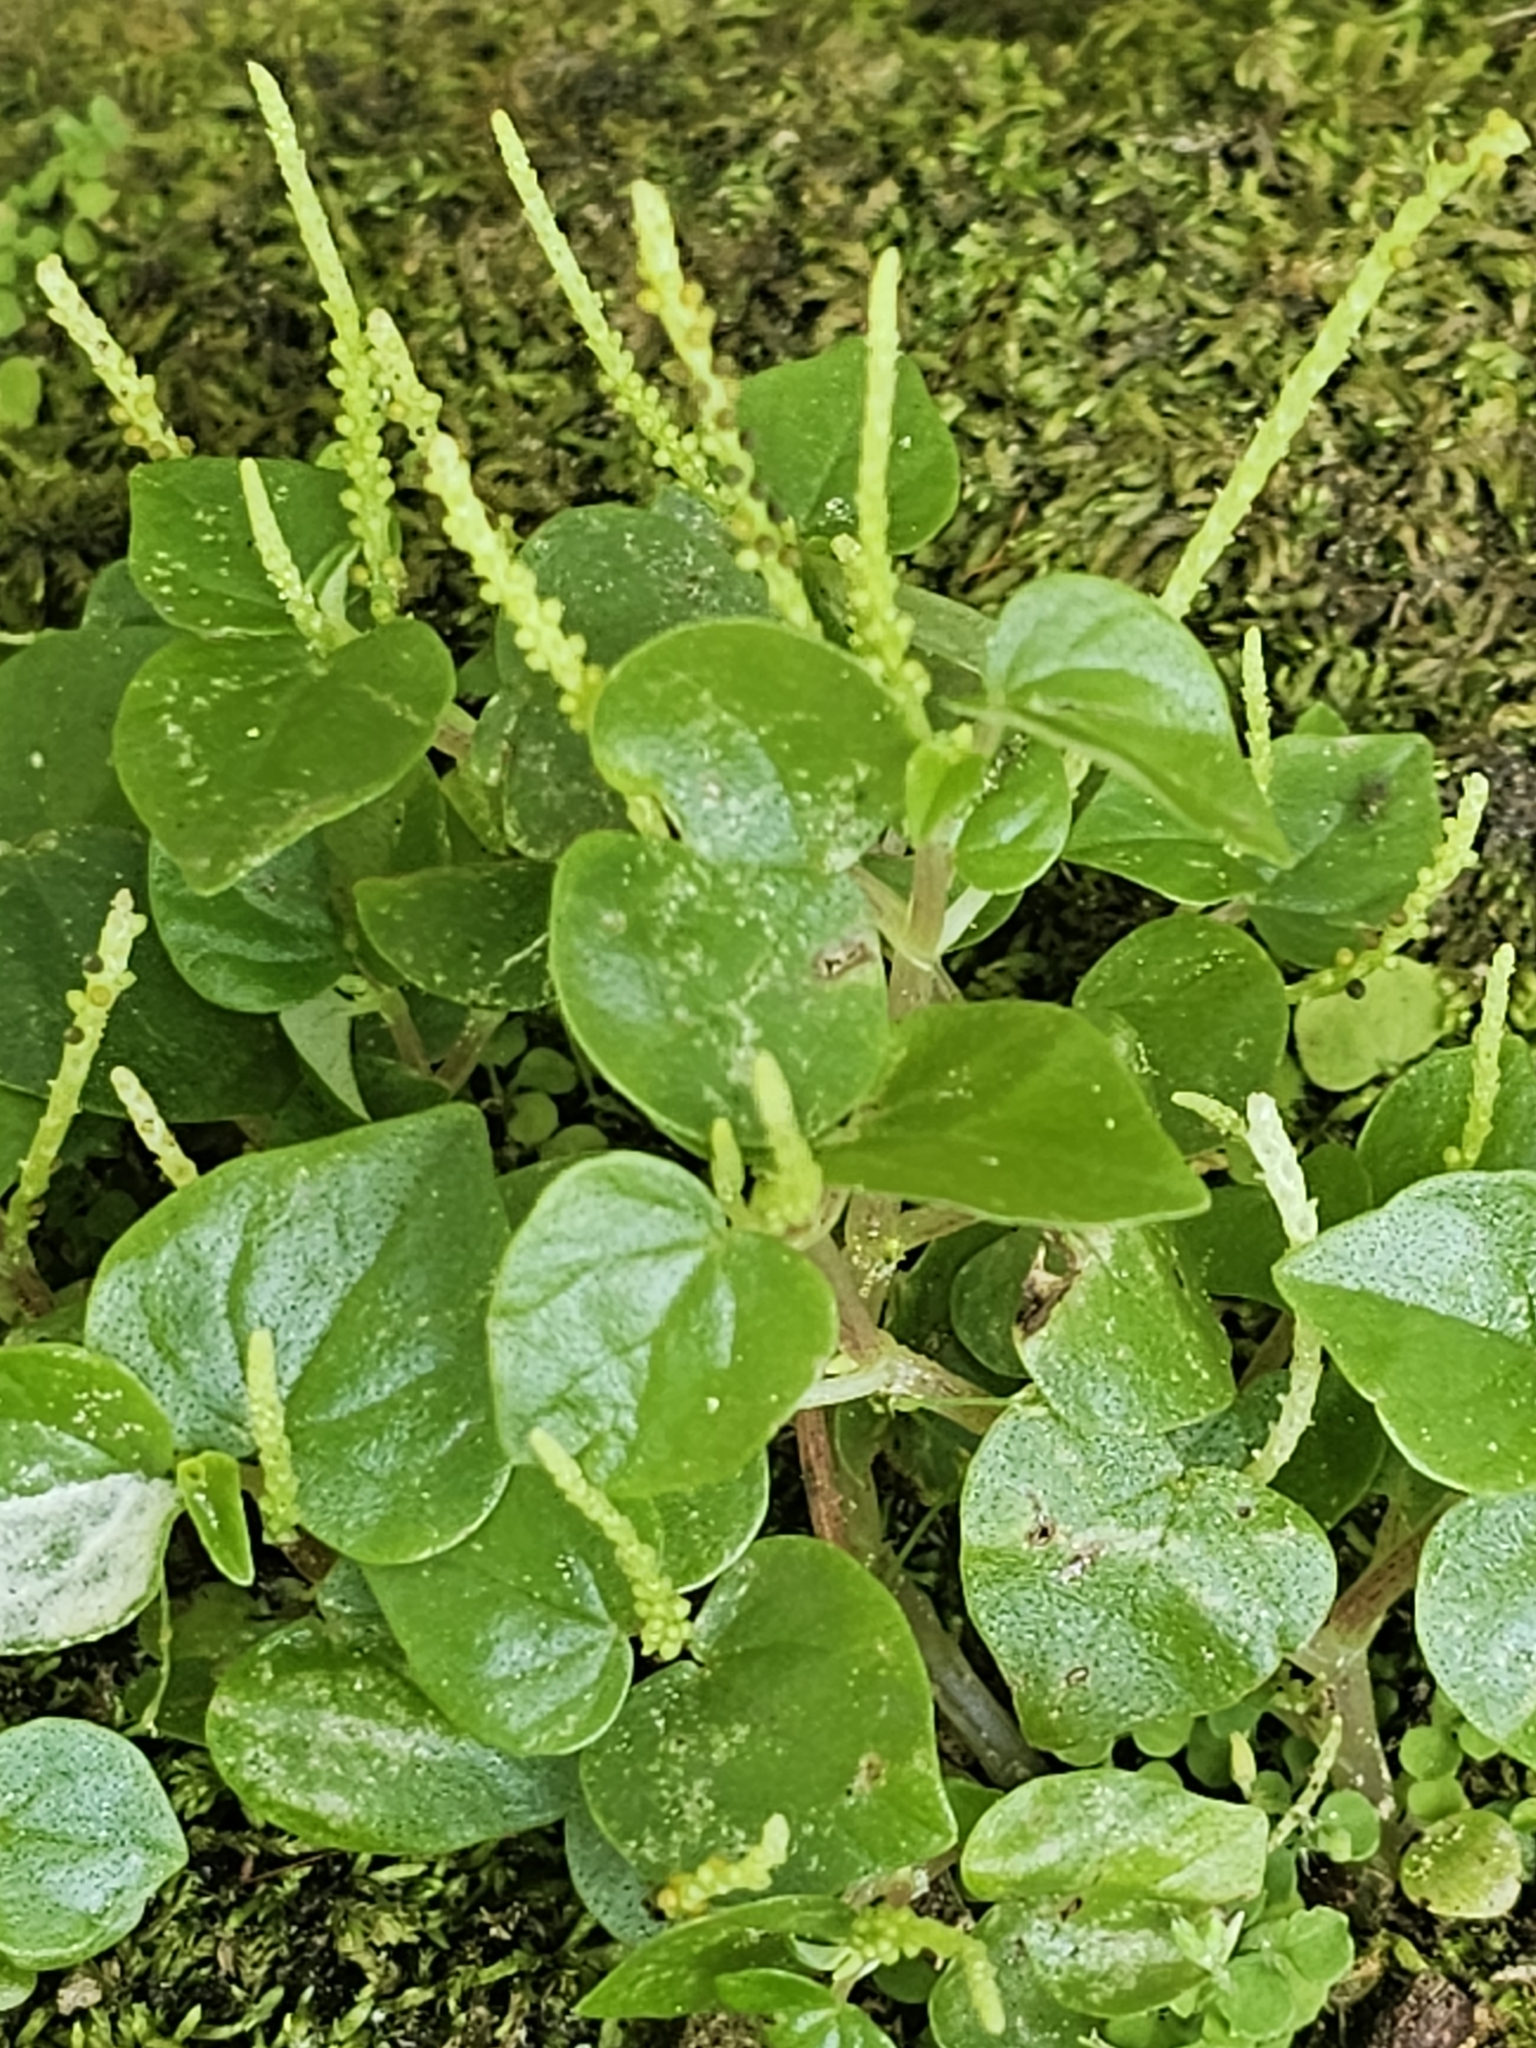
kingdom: Plantae
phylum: Tracheophyta
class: Magnoliopsida
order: Piperales
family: Piperaceae
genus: Peperomia
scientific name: Peperomia pellucida
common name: Man to man
